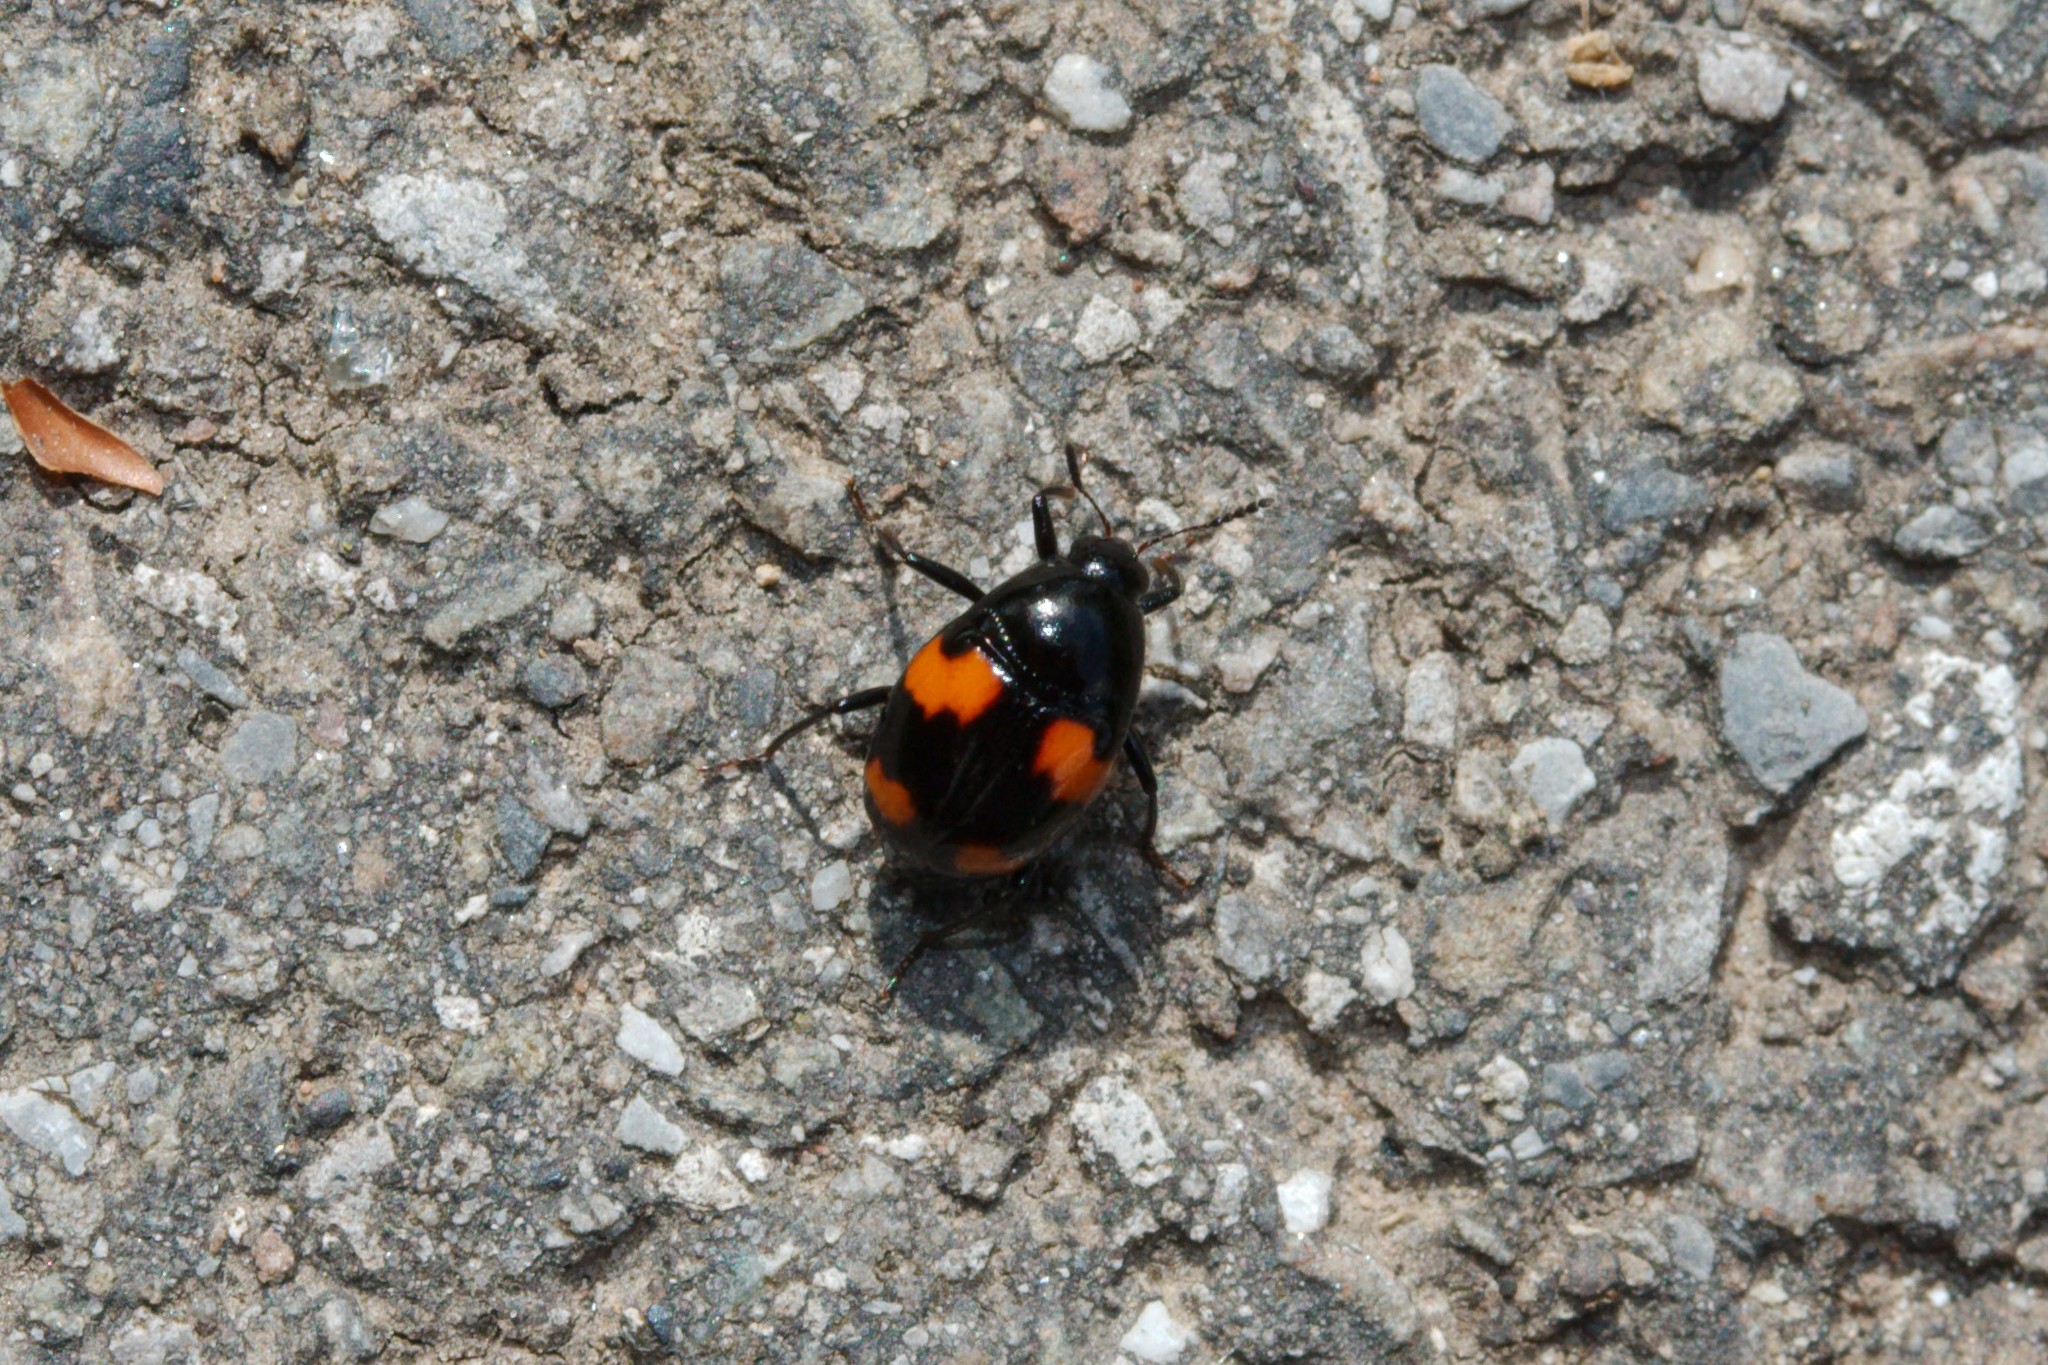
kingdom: Animalia
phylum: Arthropoda
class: Insecta
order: Coleoptera
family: Staphylinidae
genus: Scaphidium
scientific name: Scaphidium quadrimaculatum
